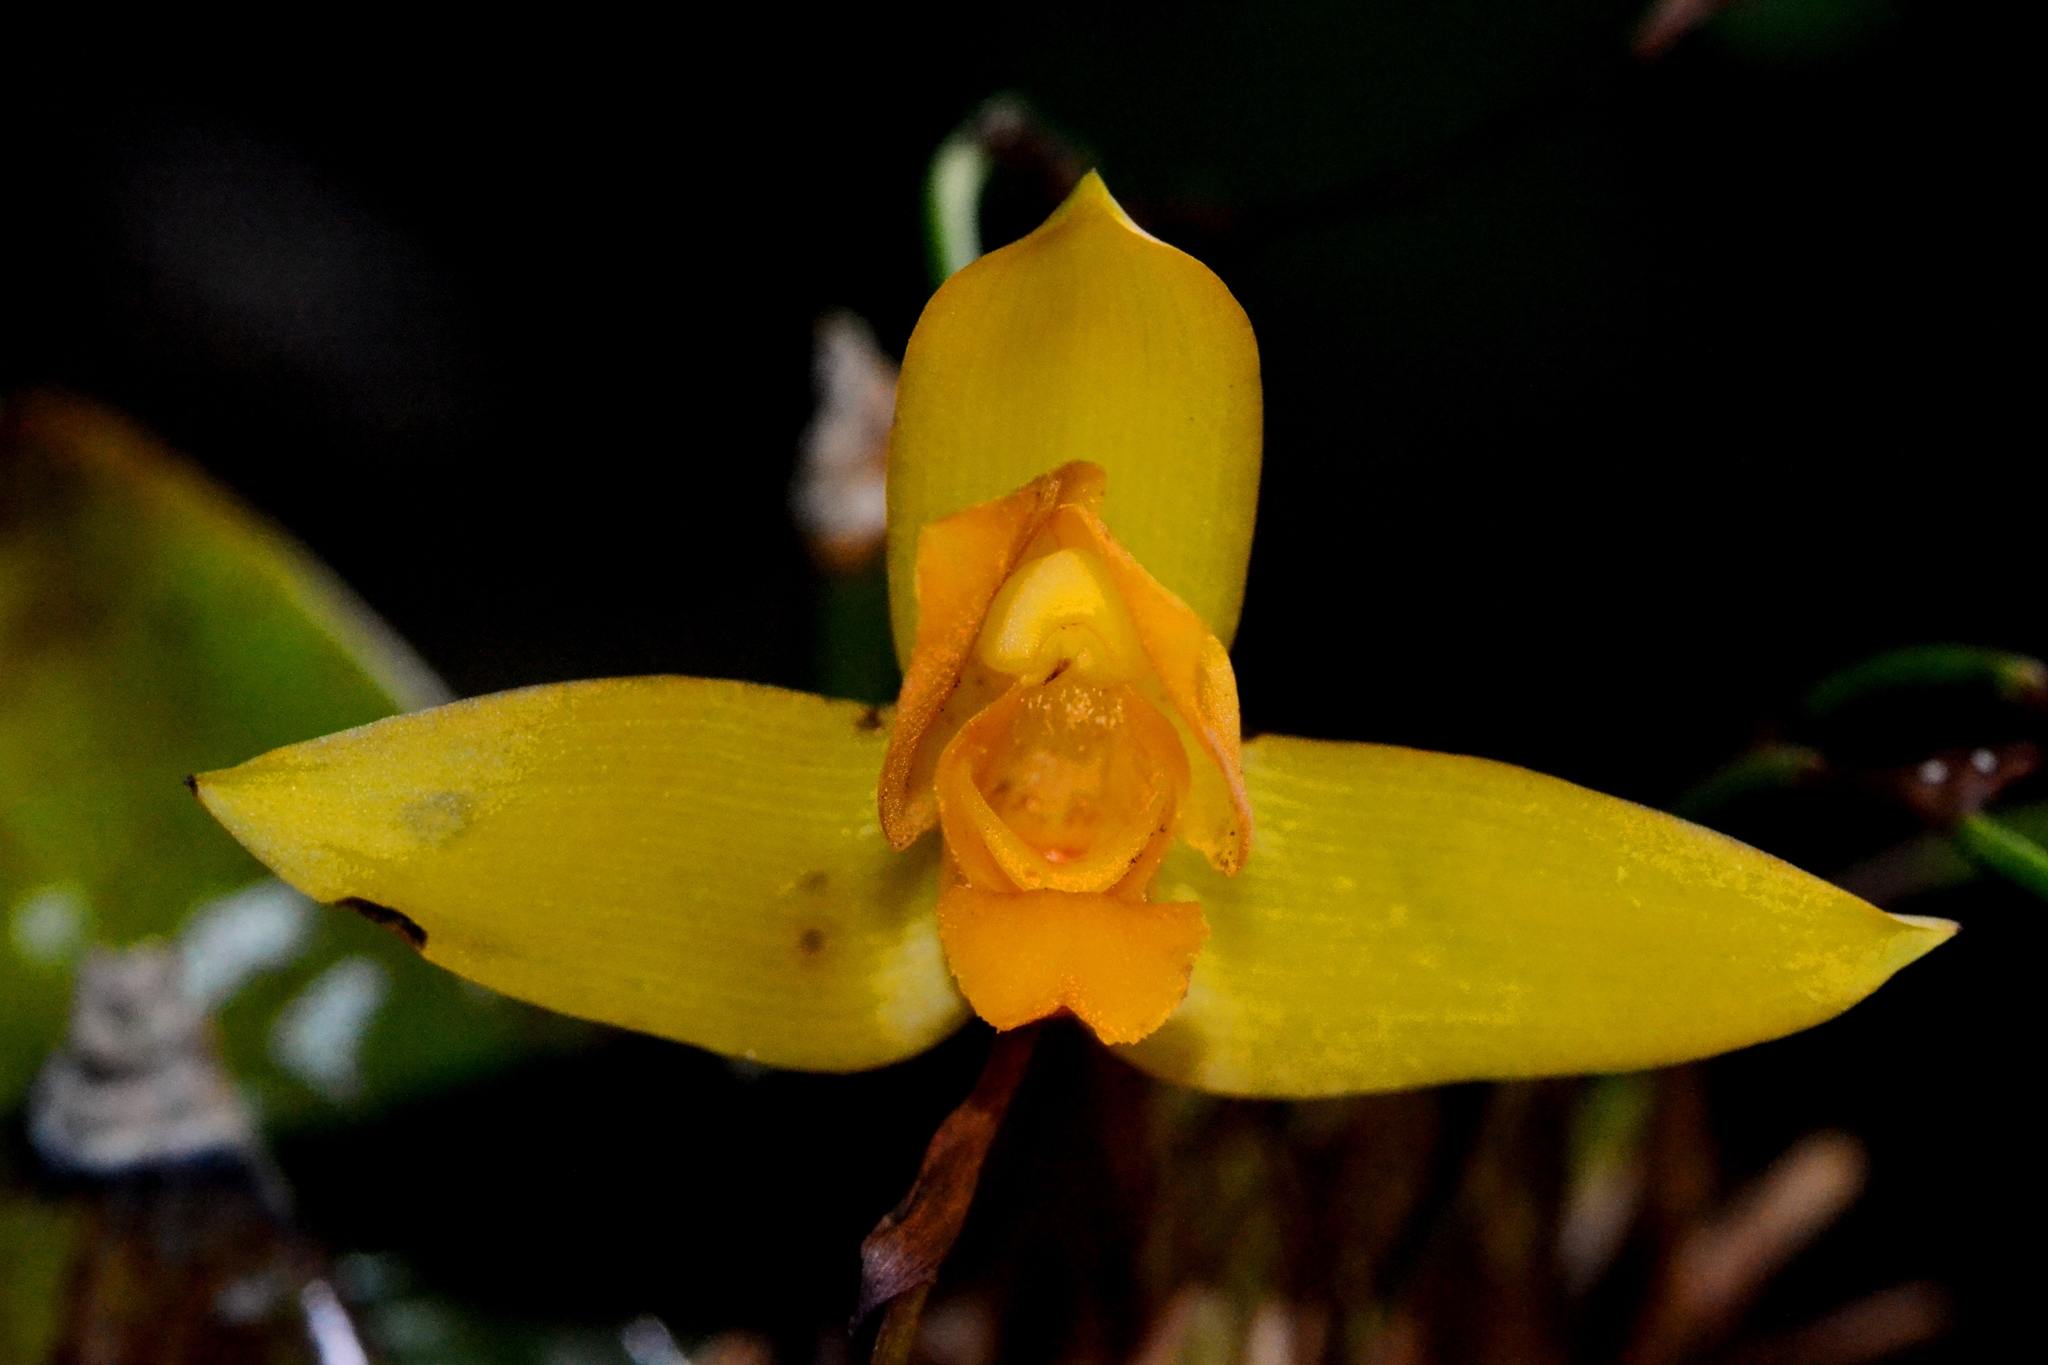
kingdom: Plantae
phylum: Tracheophyta
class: Liliopsida
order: Asparagales
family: Orchidaceae
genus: Lycaste
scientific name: Lycaste aromatica
